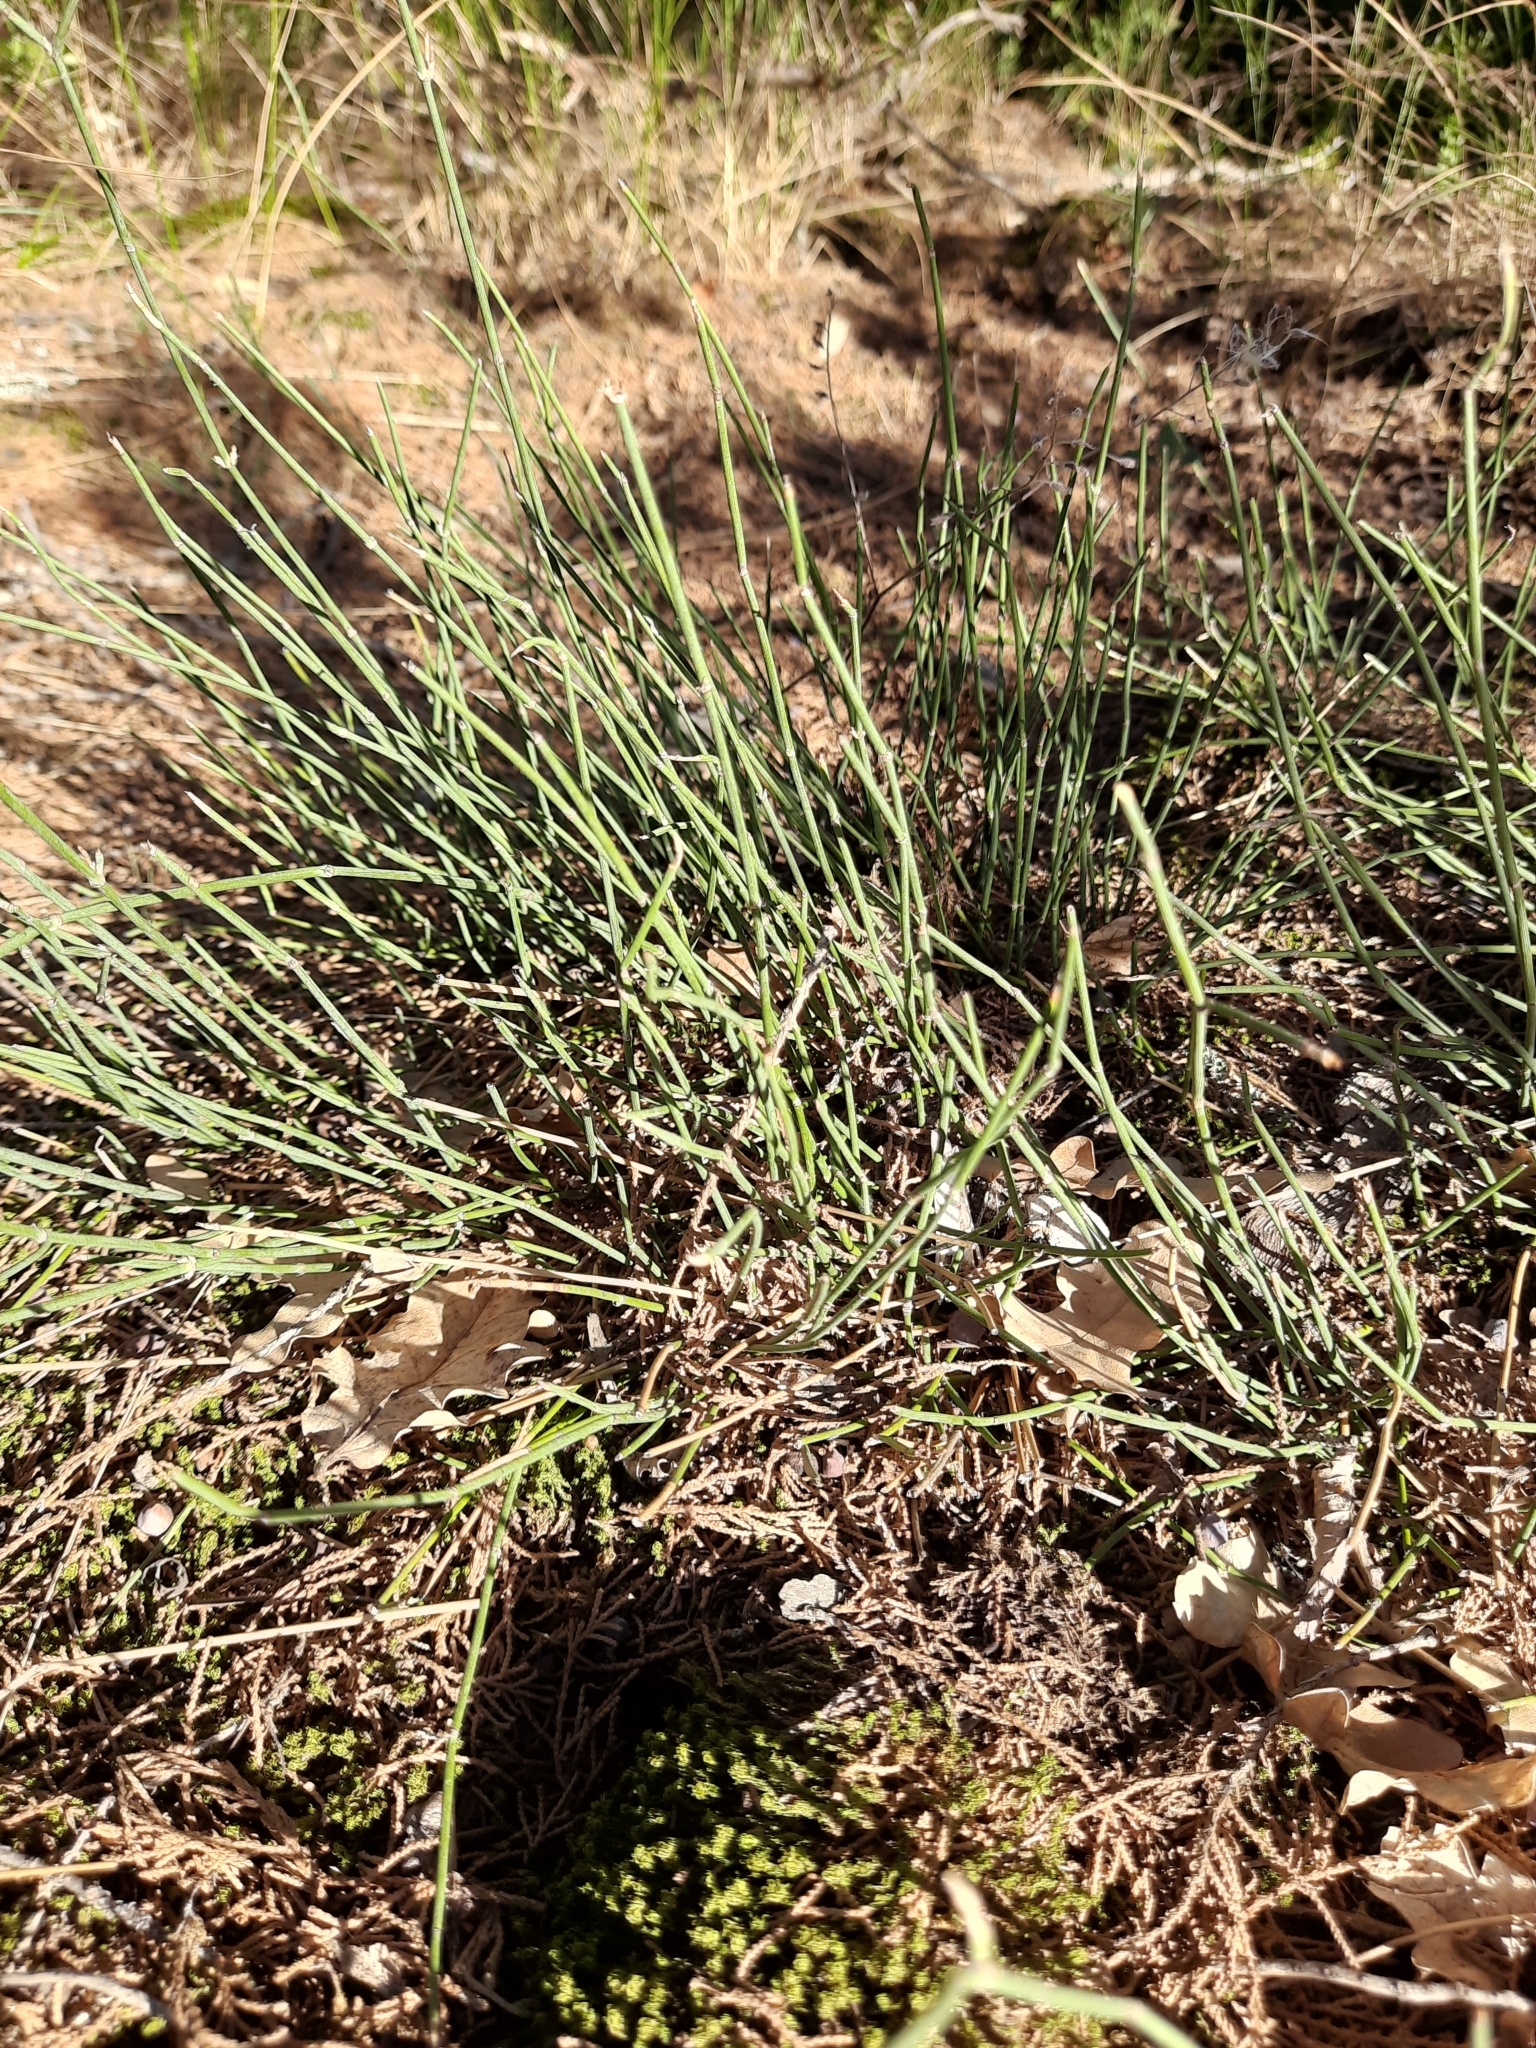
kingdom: Plantae
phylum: Tracheophyta
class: Gnetopsida
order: Ephedrales
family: Ephedraceae
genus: Ephedra
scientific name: Ephedra distachya
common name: Sea grape
